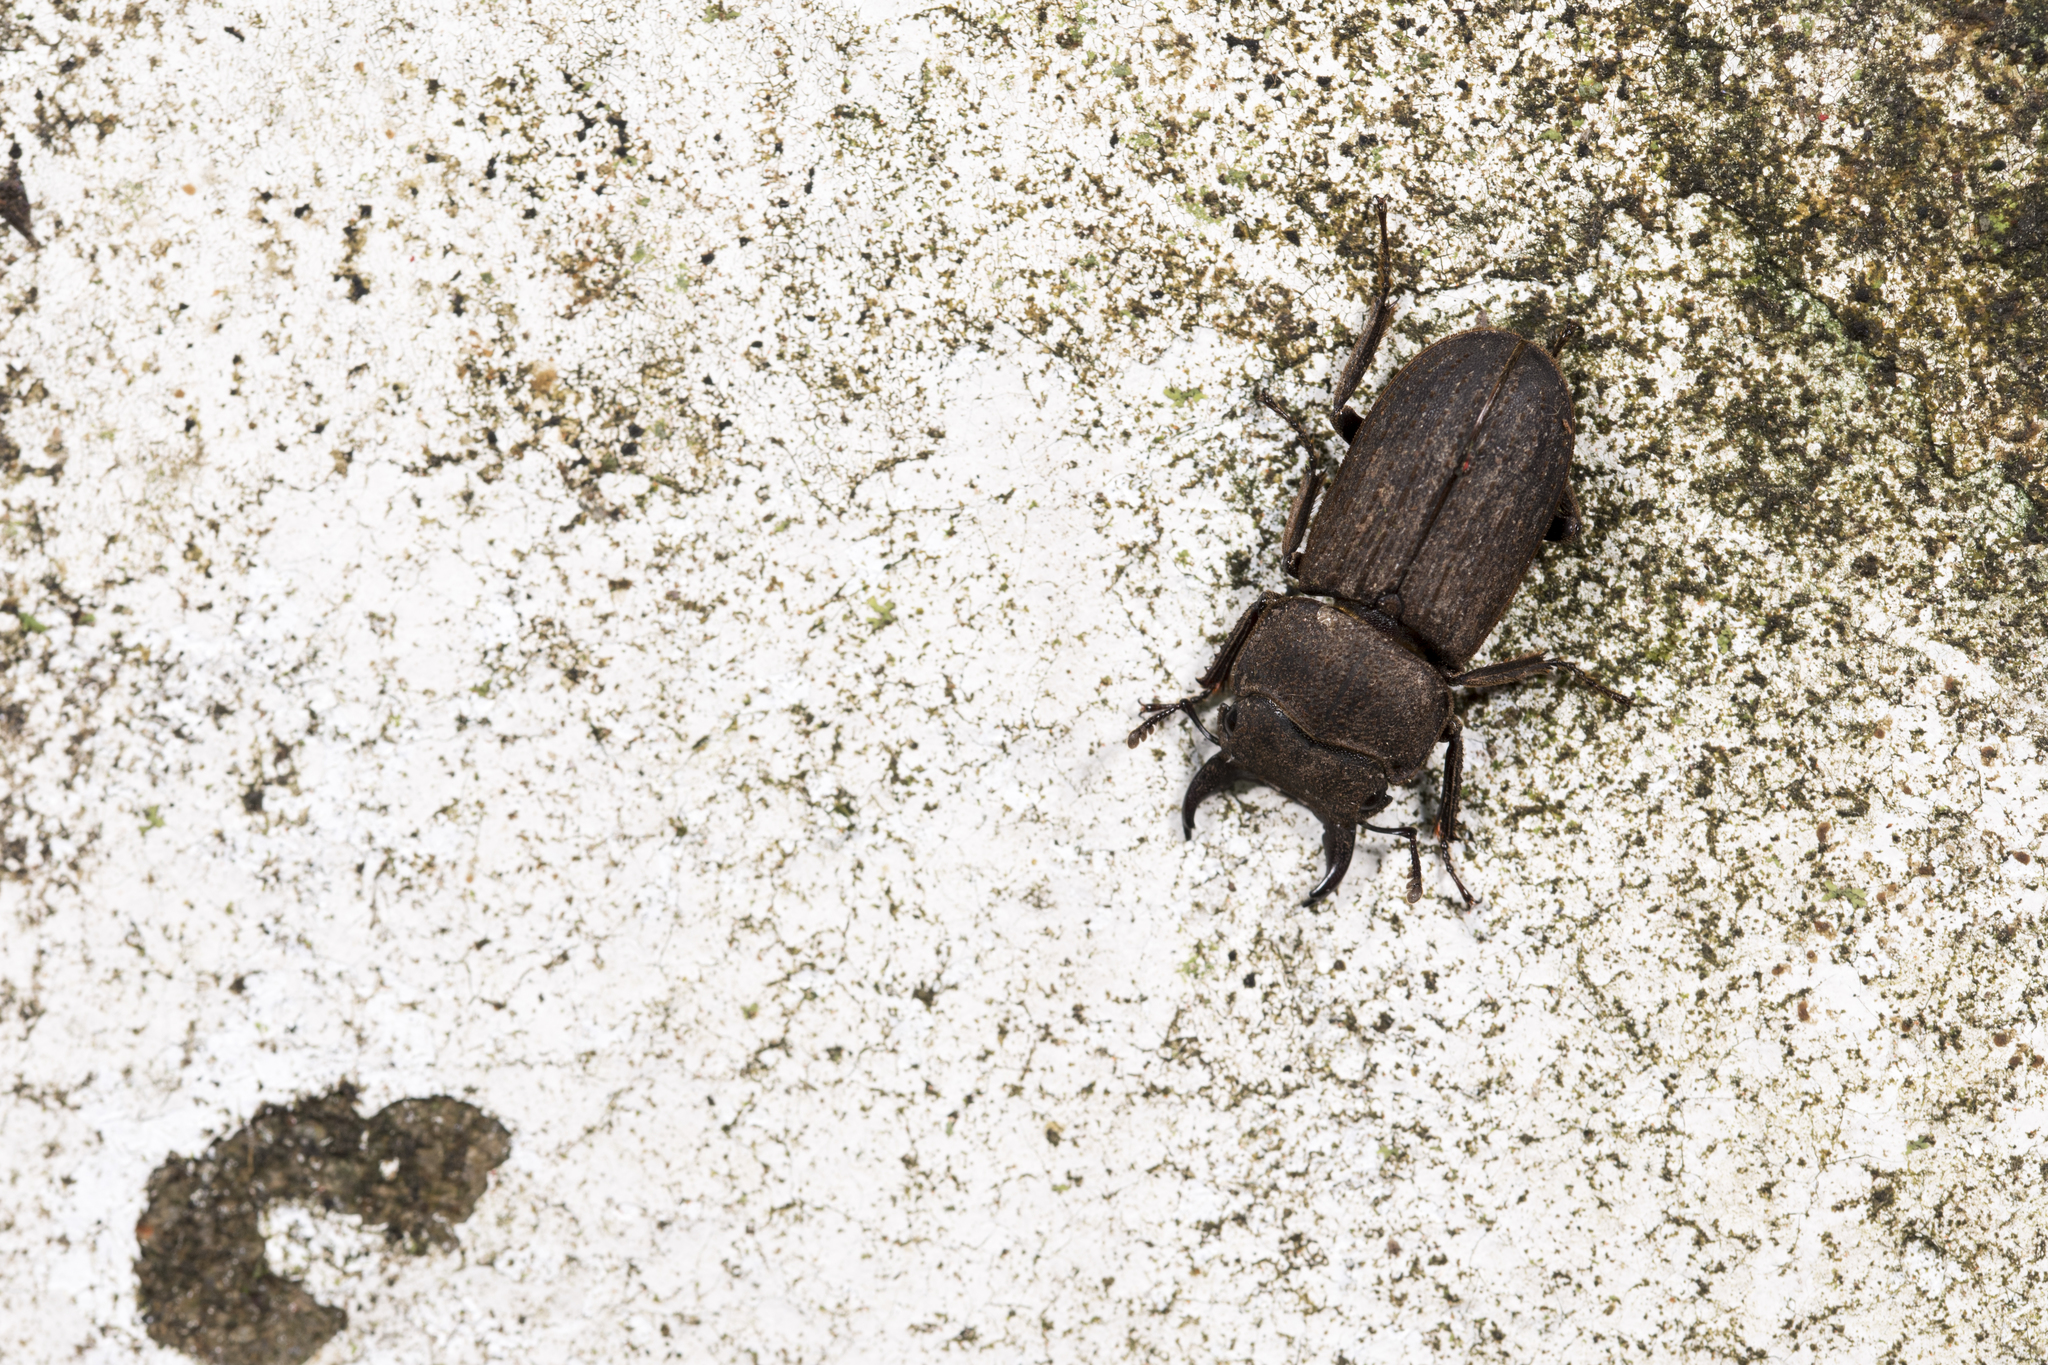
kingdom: Animalia
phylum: Arthropoda
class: Insecta
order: Coleoptera
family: Lucanidae
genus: Dorcus
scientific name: Dorcus
